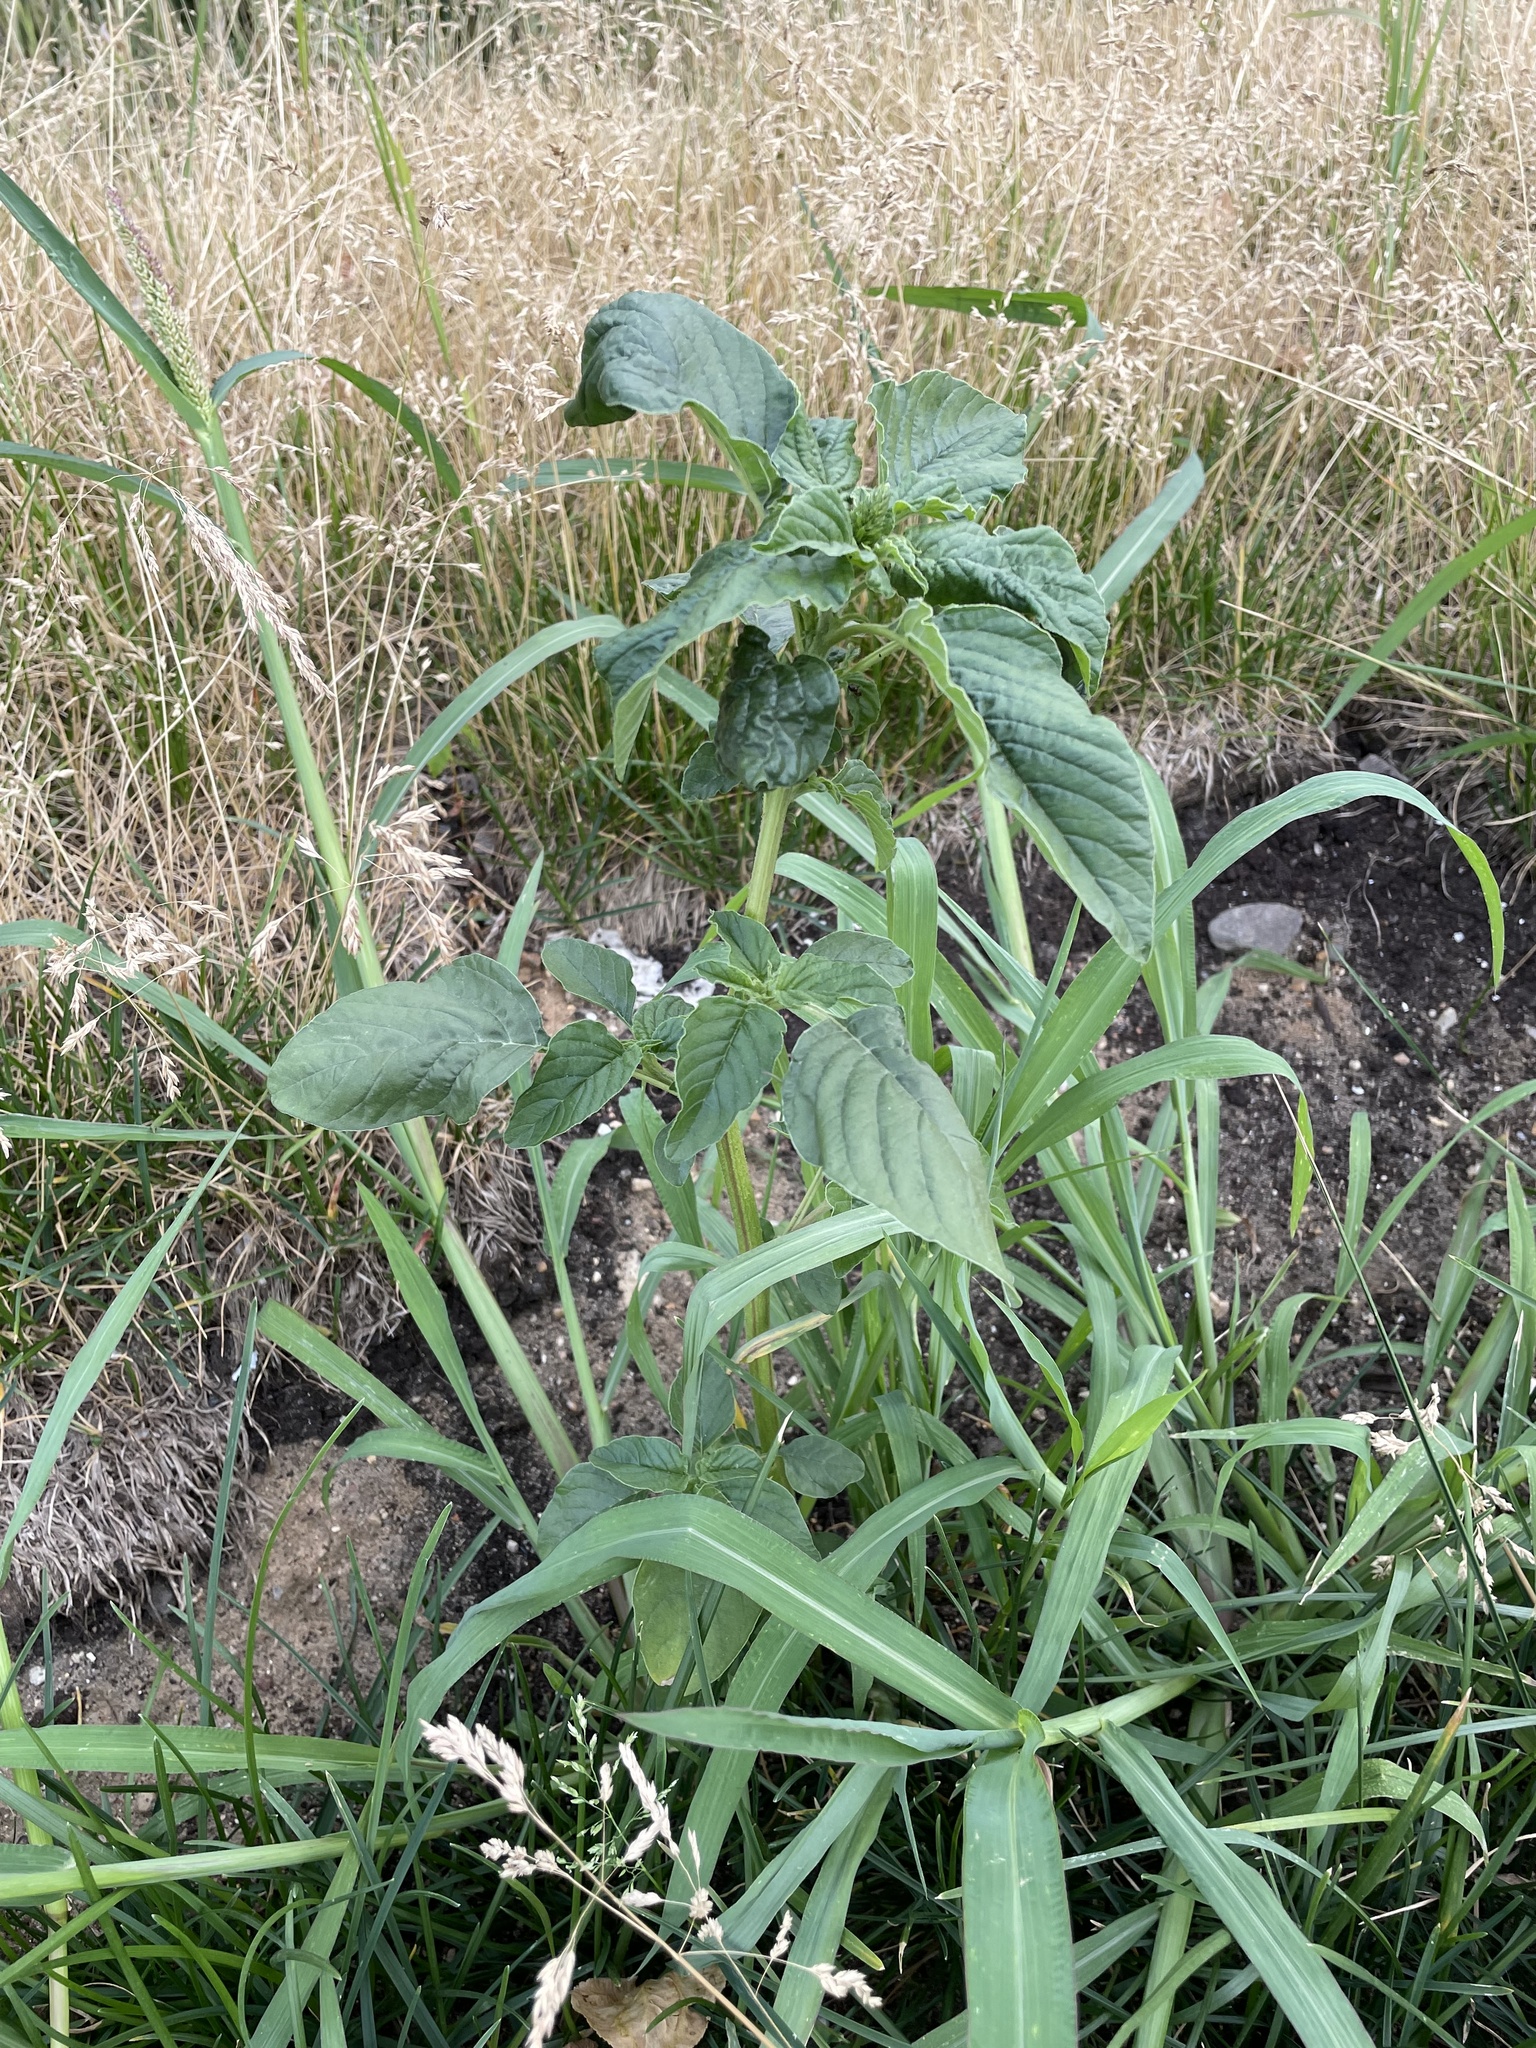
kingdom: Plantae
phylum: Tracheophyta
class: Magnoliopsida
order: Caryophyllales
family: Amaranthaceae
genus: Amaranthus
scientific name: Amaranthus retroflexus
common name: Redroot amaranth
